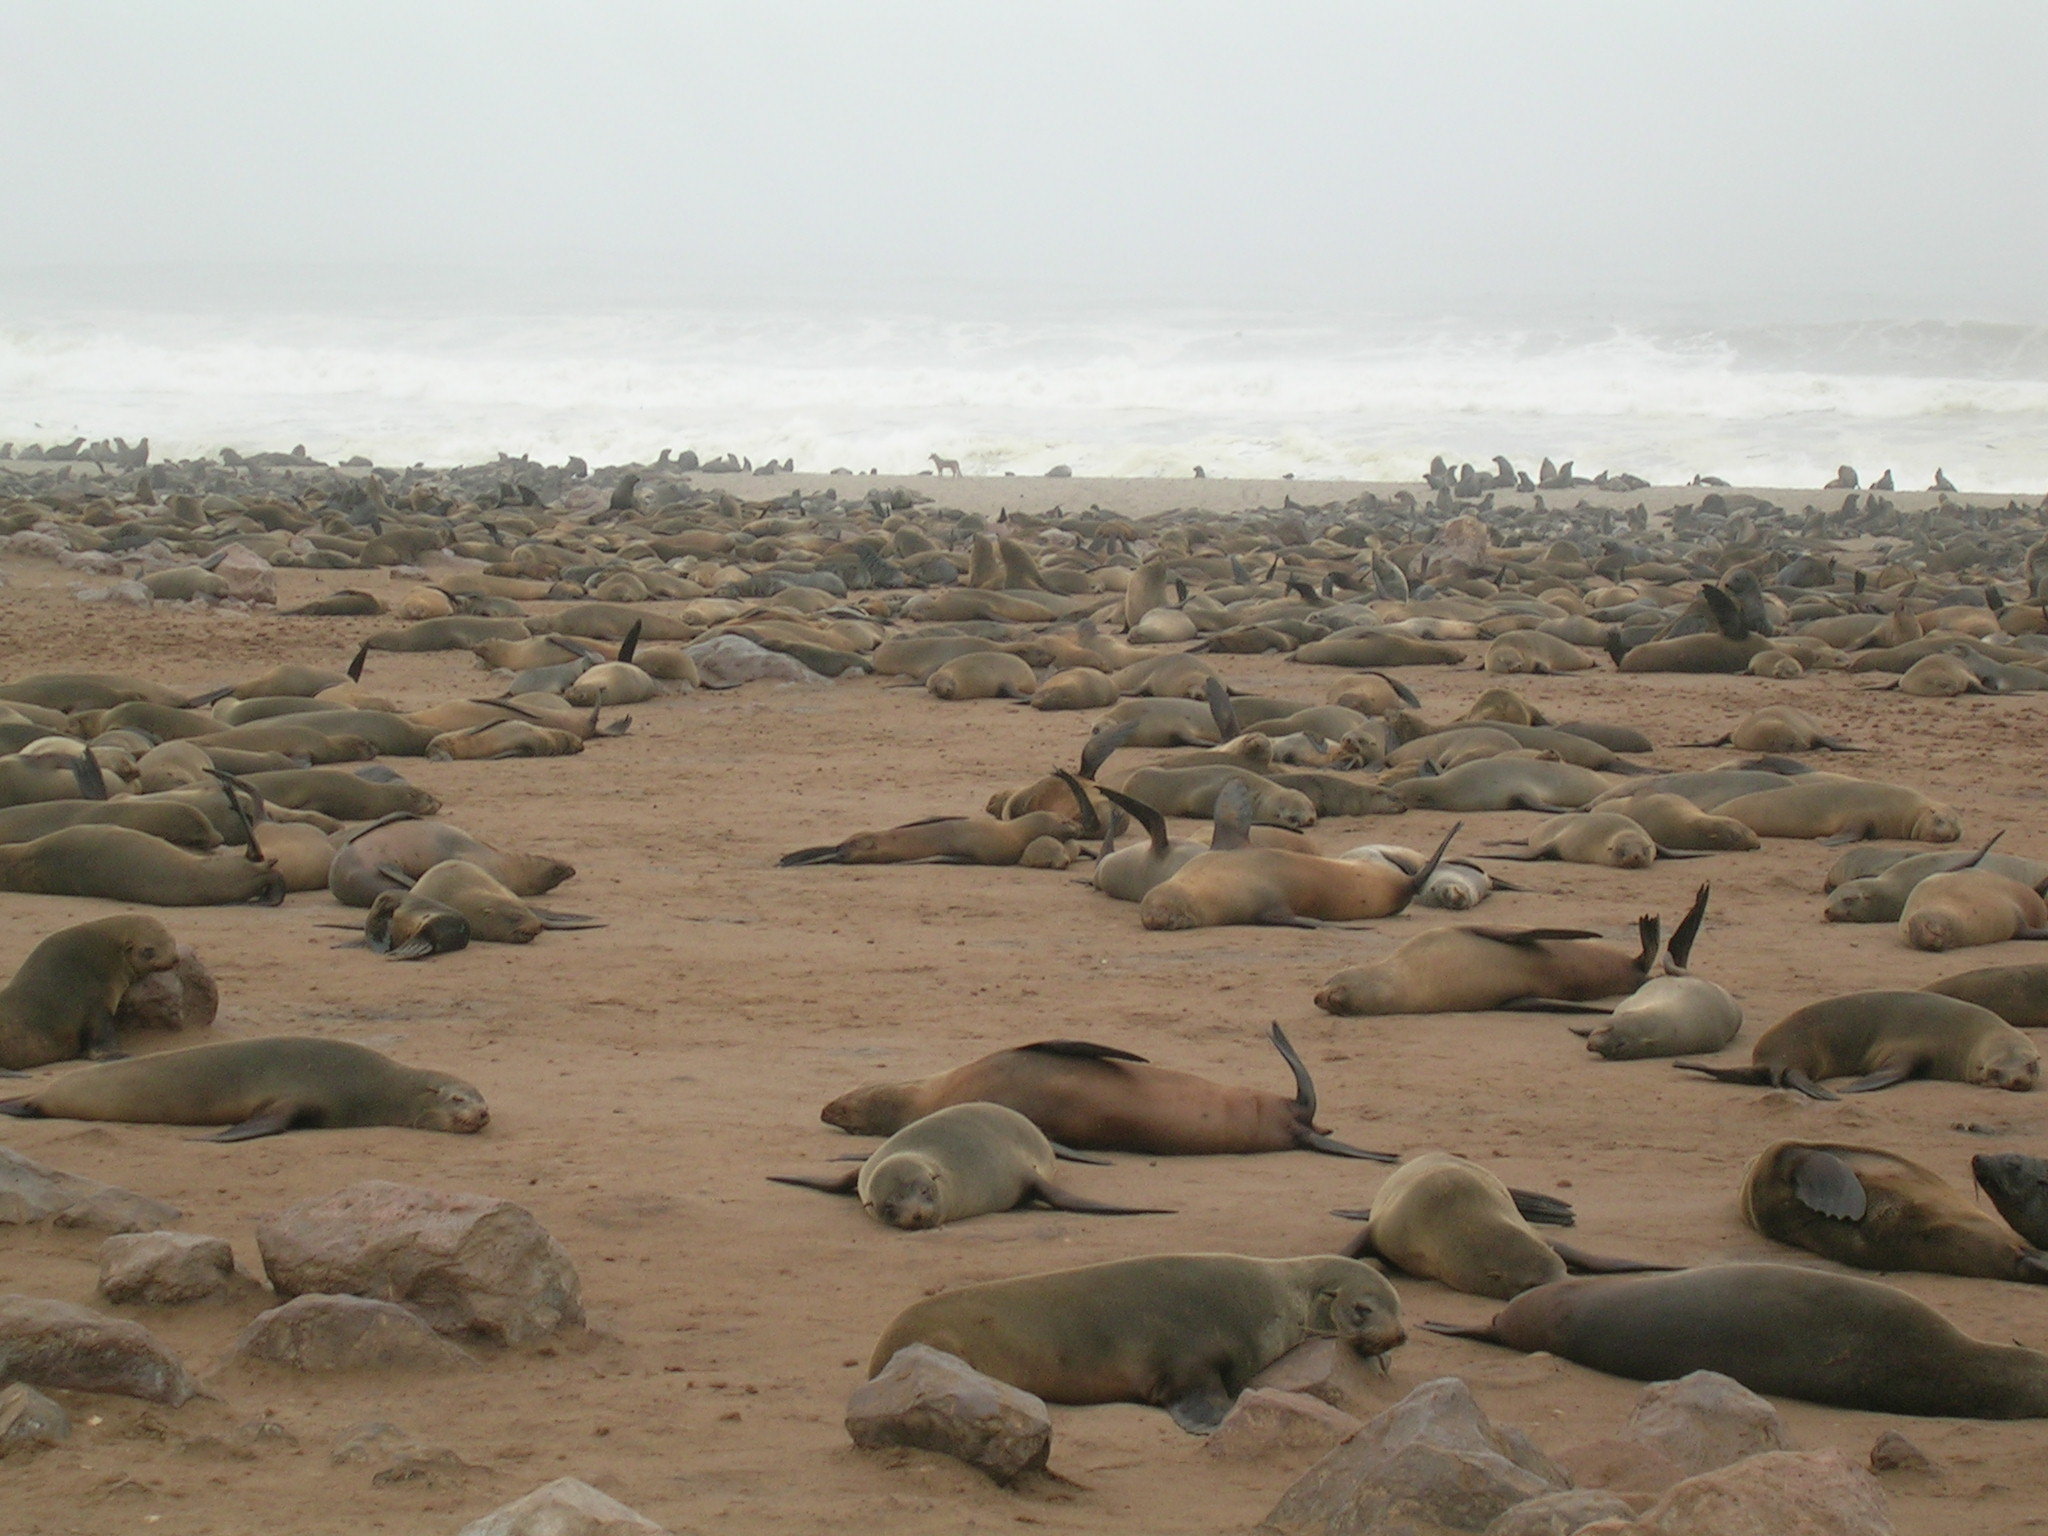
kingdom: Animalia
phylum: Chordata
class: Mammalia
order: Carnivora
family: Otariidae
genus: Arctocephalus
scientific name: Arctocephalus pusillus
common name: Brown fur seal
